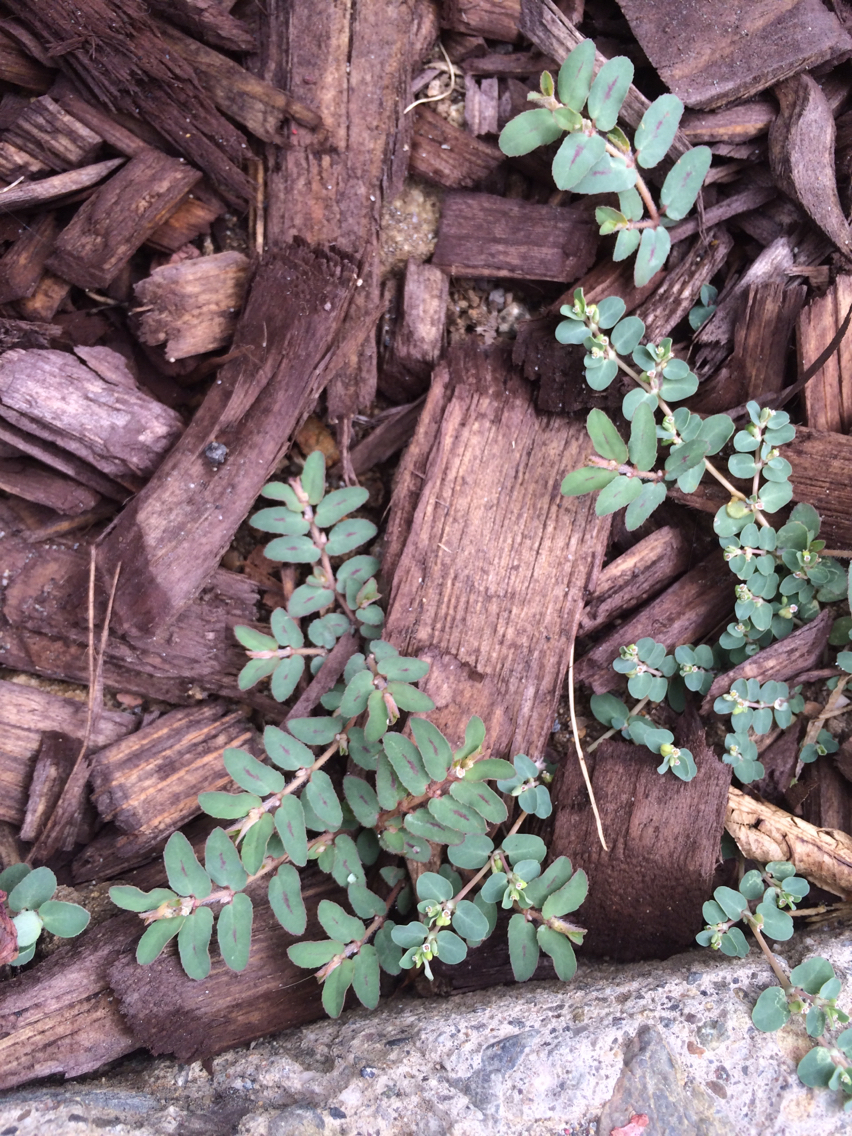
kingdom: Plantae
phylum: Tracheophyta
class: Magnoliopsida
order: Malpighiales
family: Euphorbiaceae
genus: Euphorbia
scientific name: Euphorbia maculata
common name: Spotted spurge
